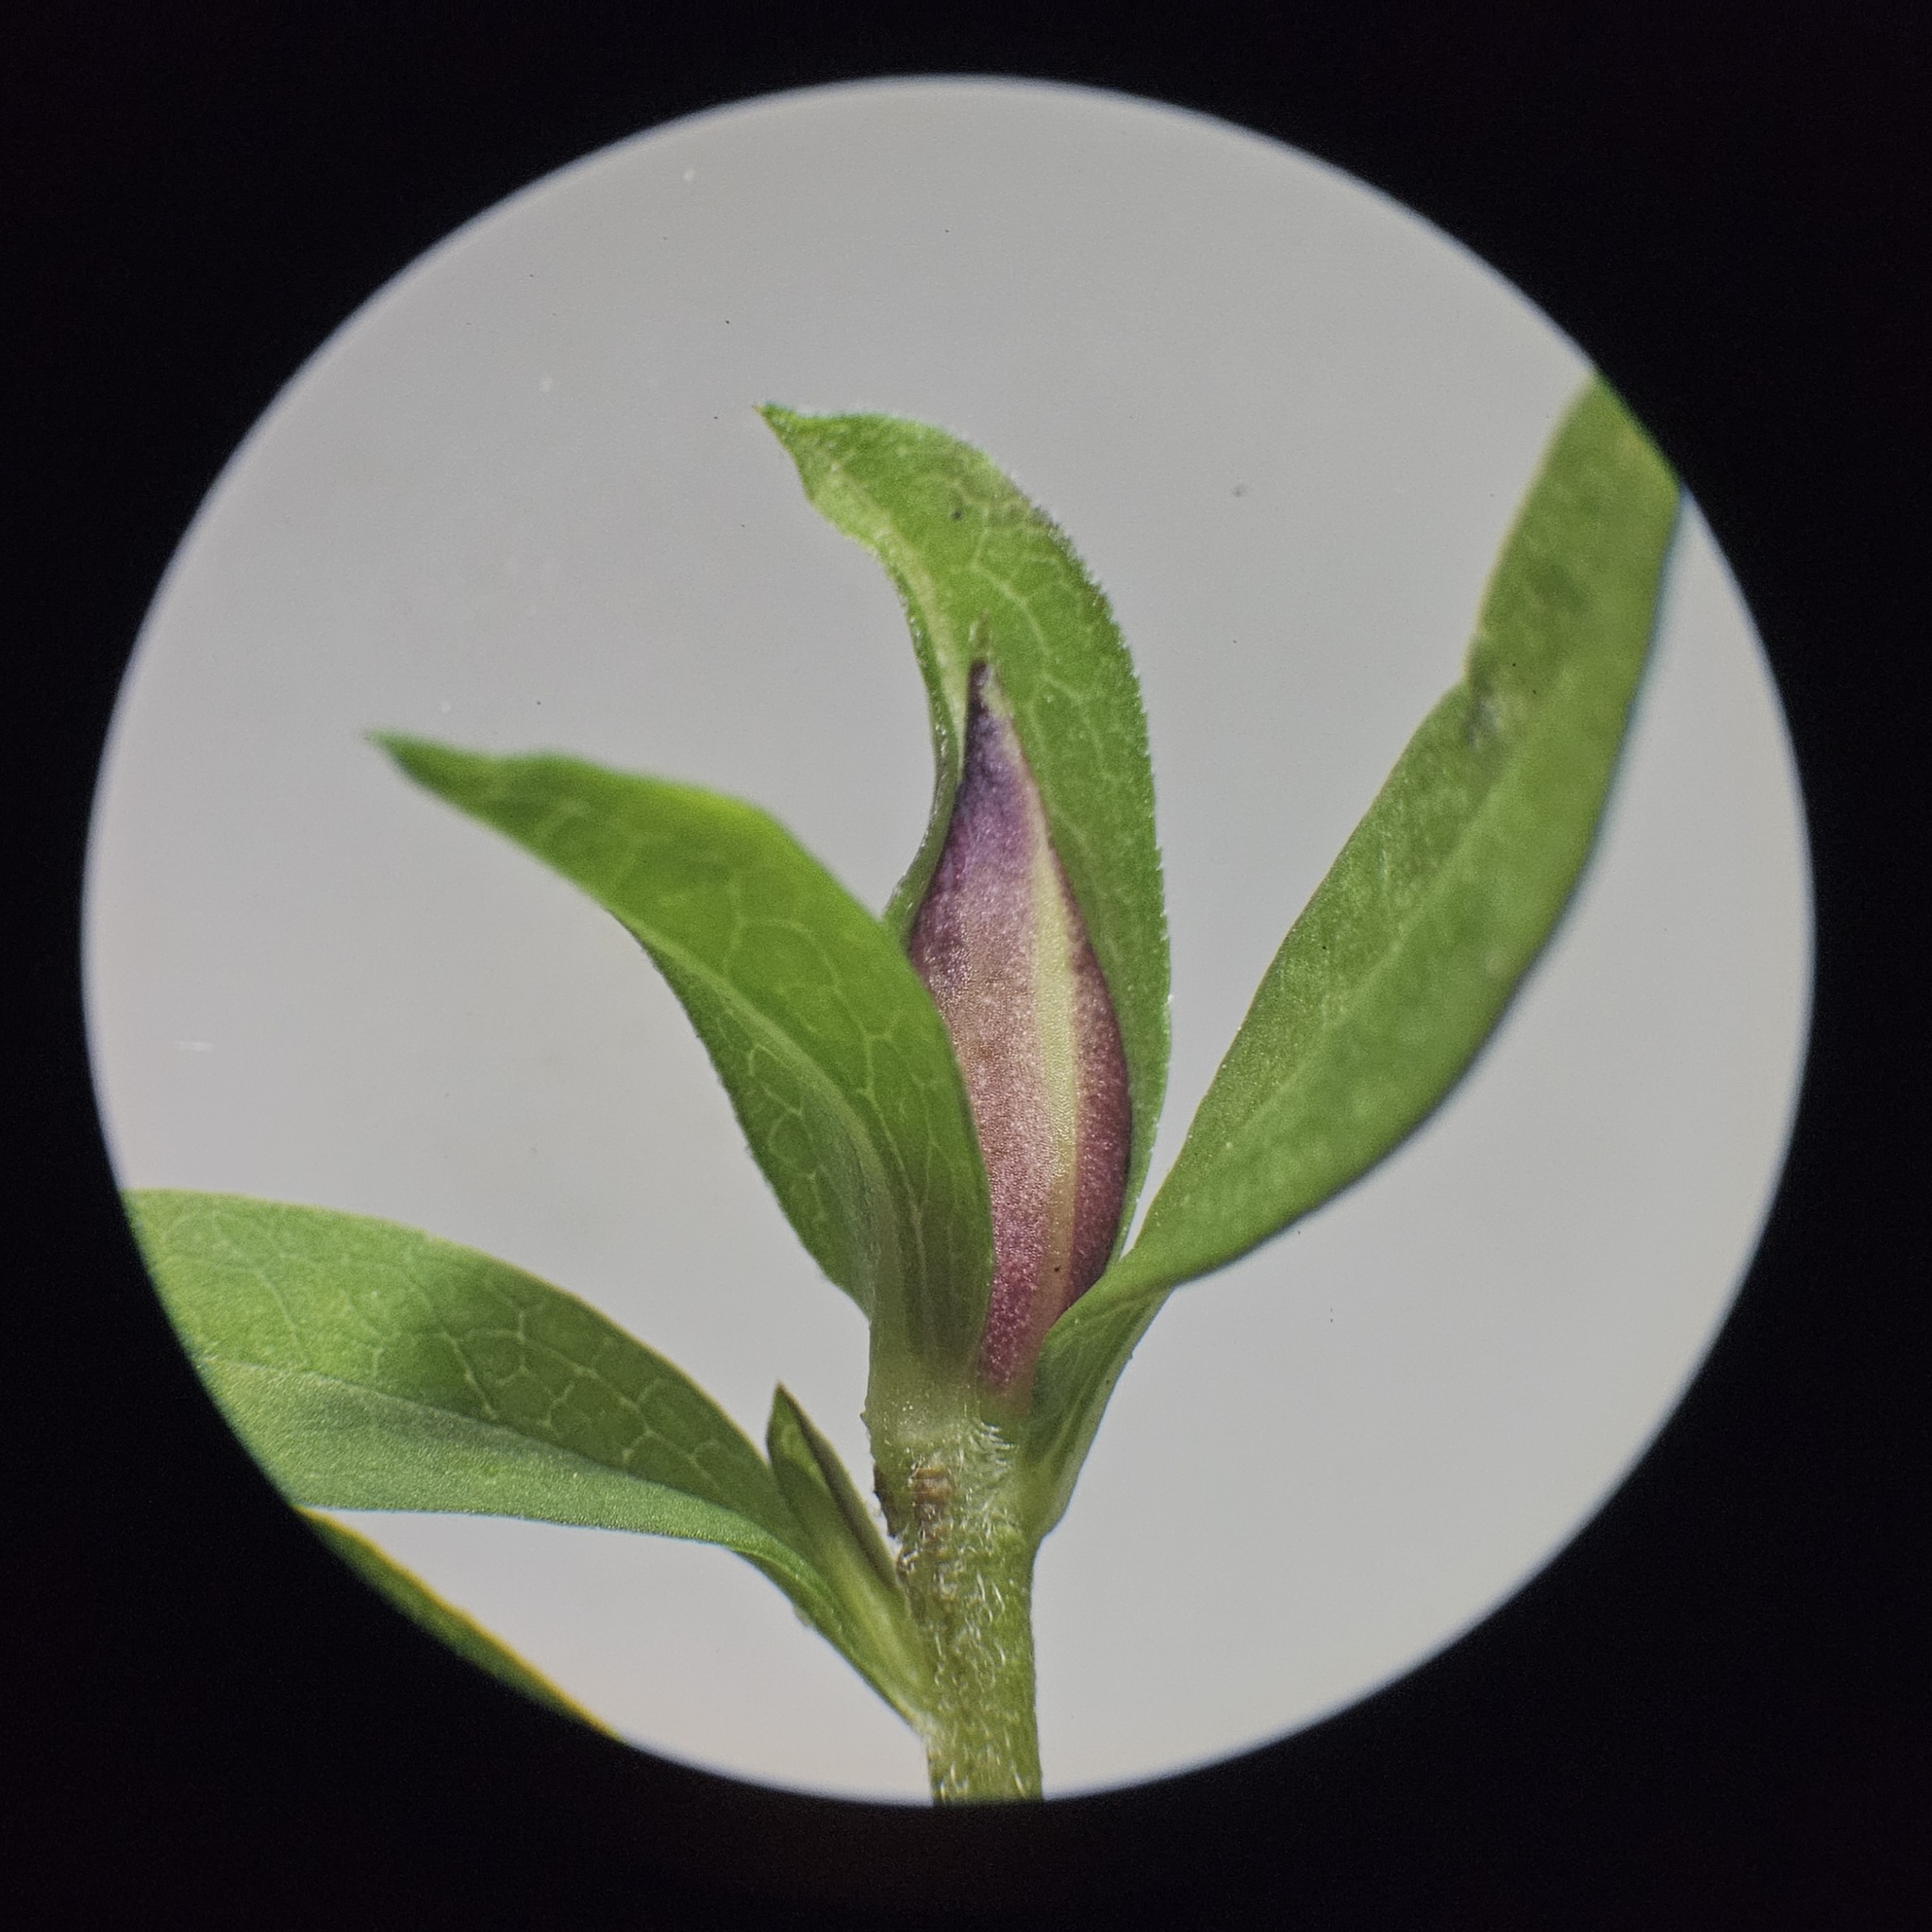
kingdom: Animalia
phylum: Arthropoda
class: Insecta
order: Diptera
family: Cecidomyiidae
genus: Asphondylia
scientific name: Asphondylia imbricata
